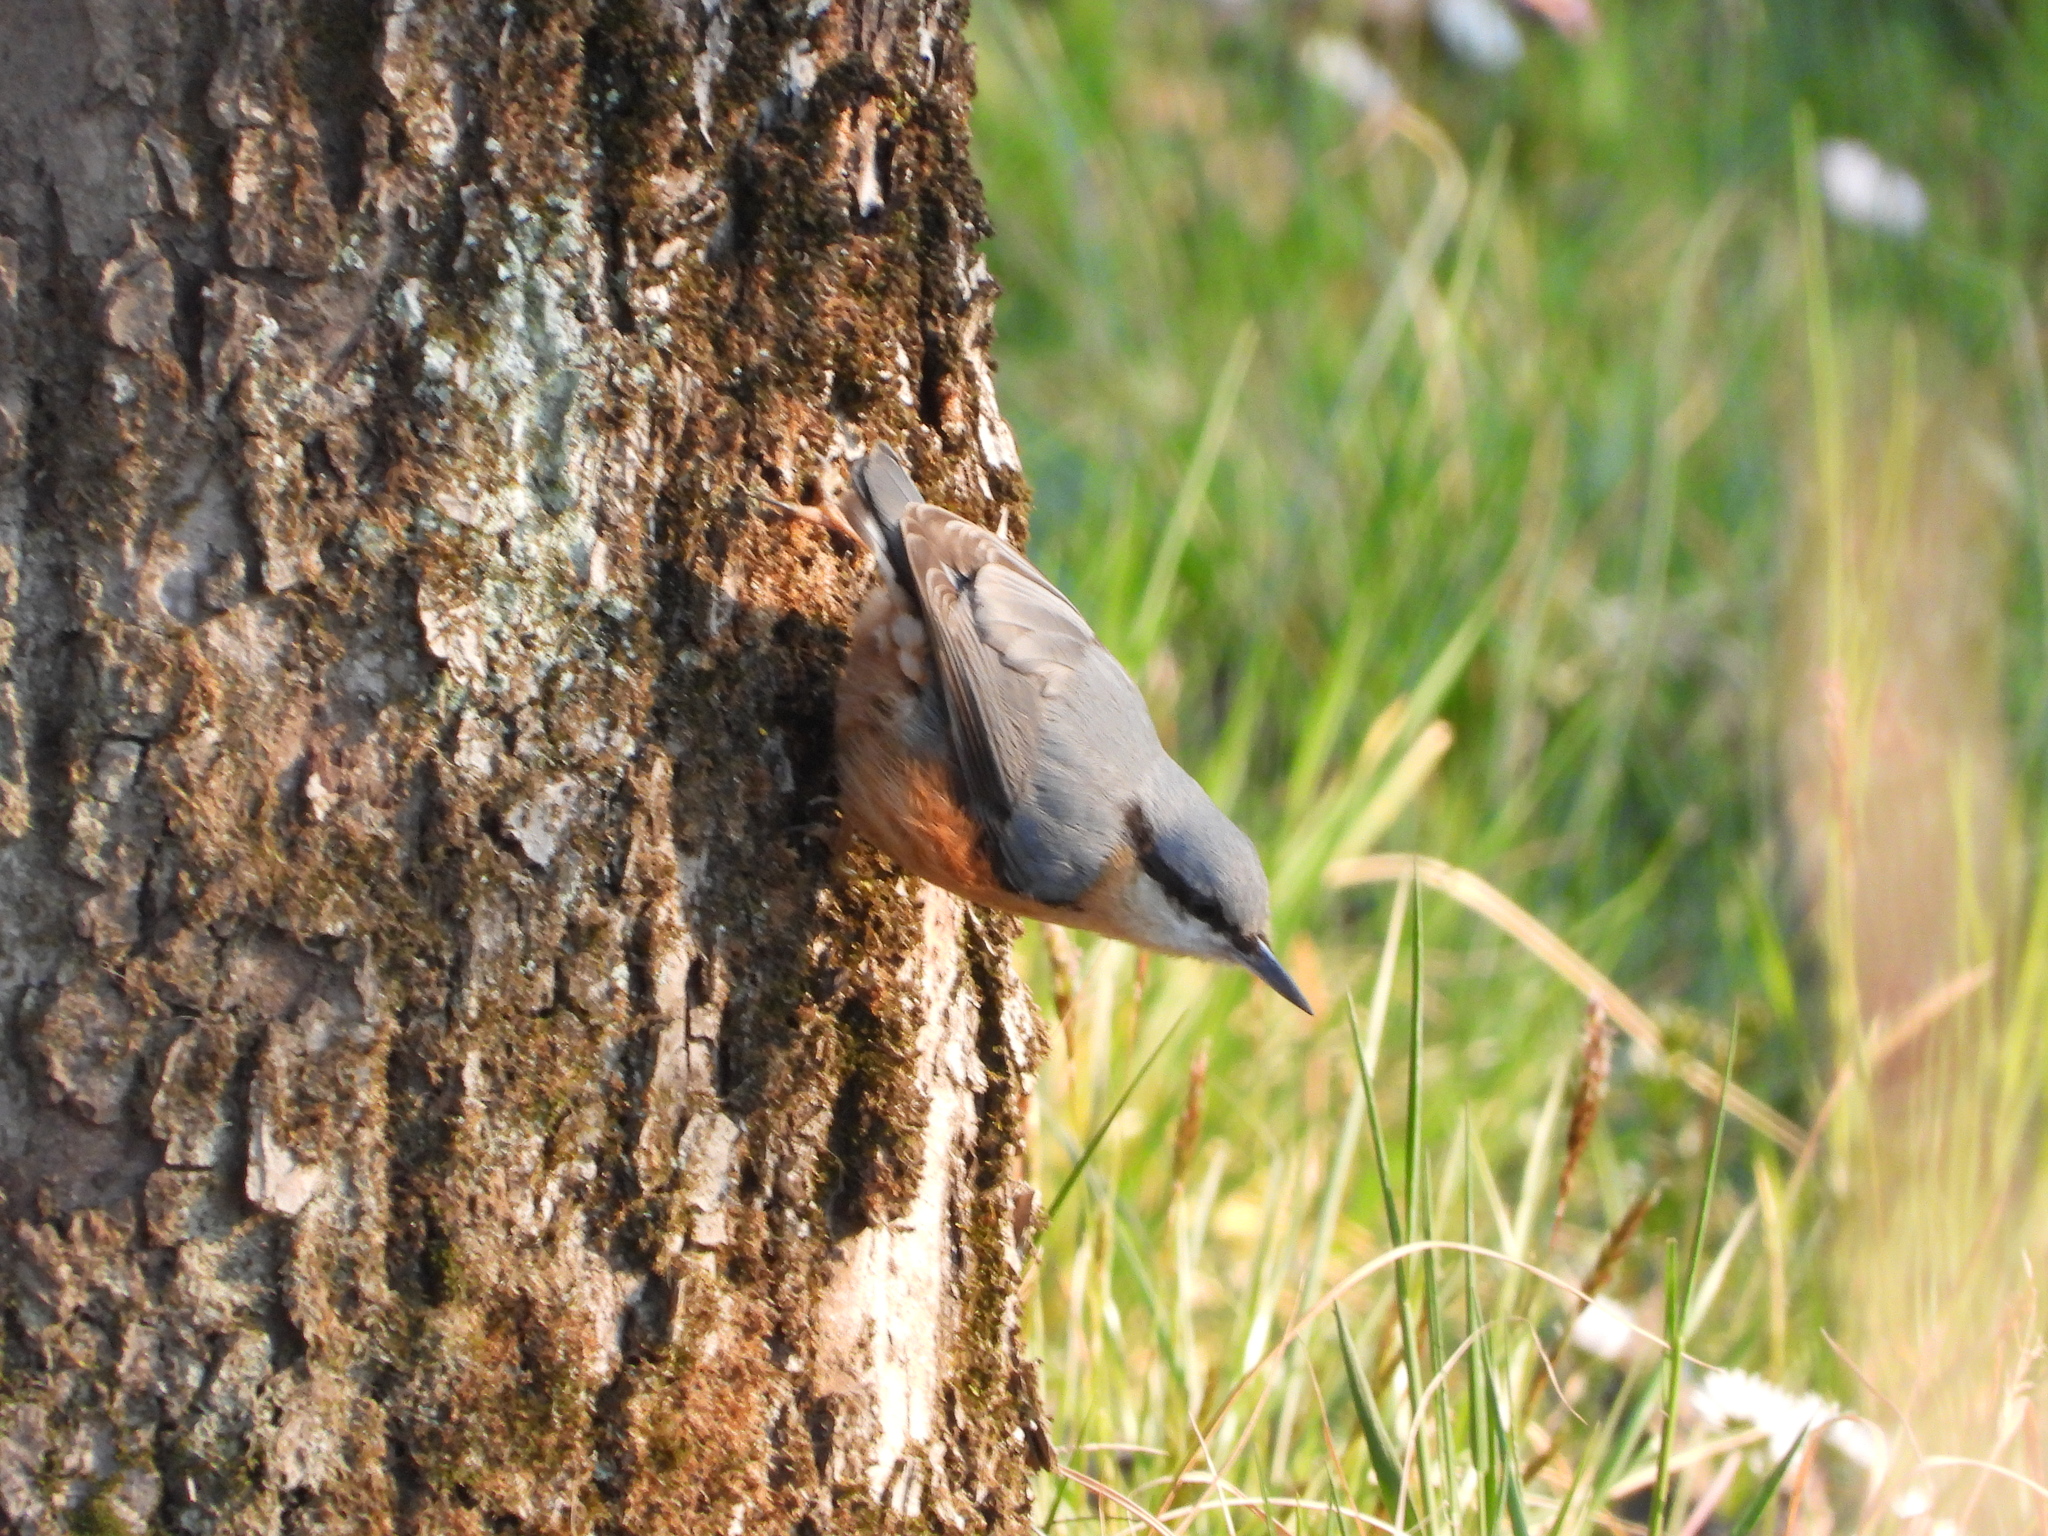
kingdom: Animalia
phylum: Chordata
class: Aves
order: Passeriformes
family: Sittidae
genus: Sitta
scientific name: Sitta europaea
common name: Eurasian nuthatch
